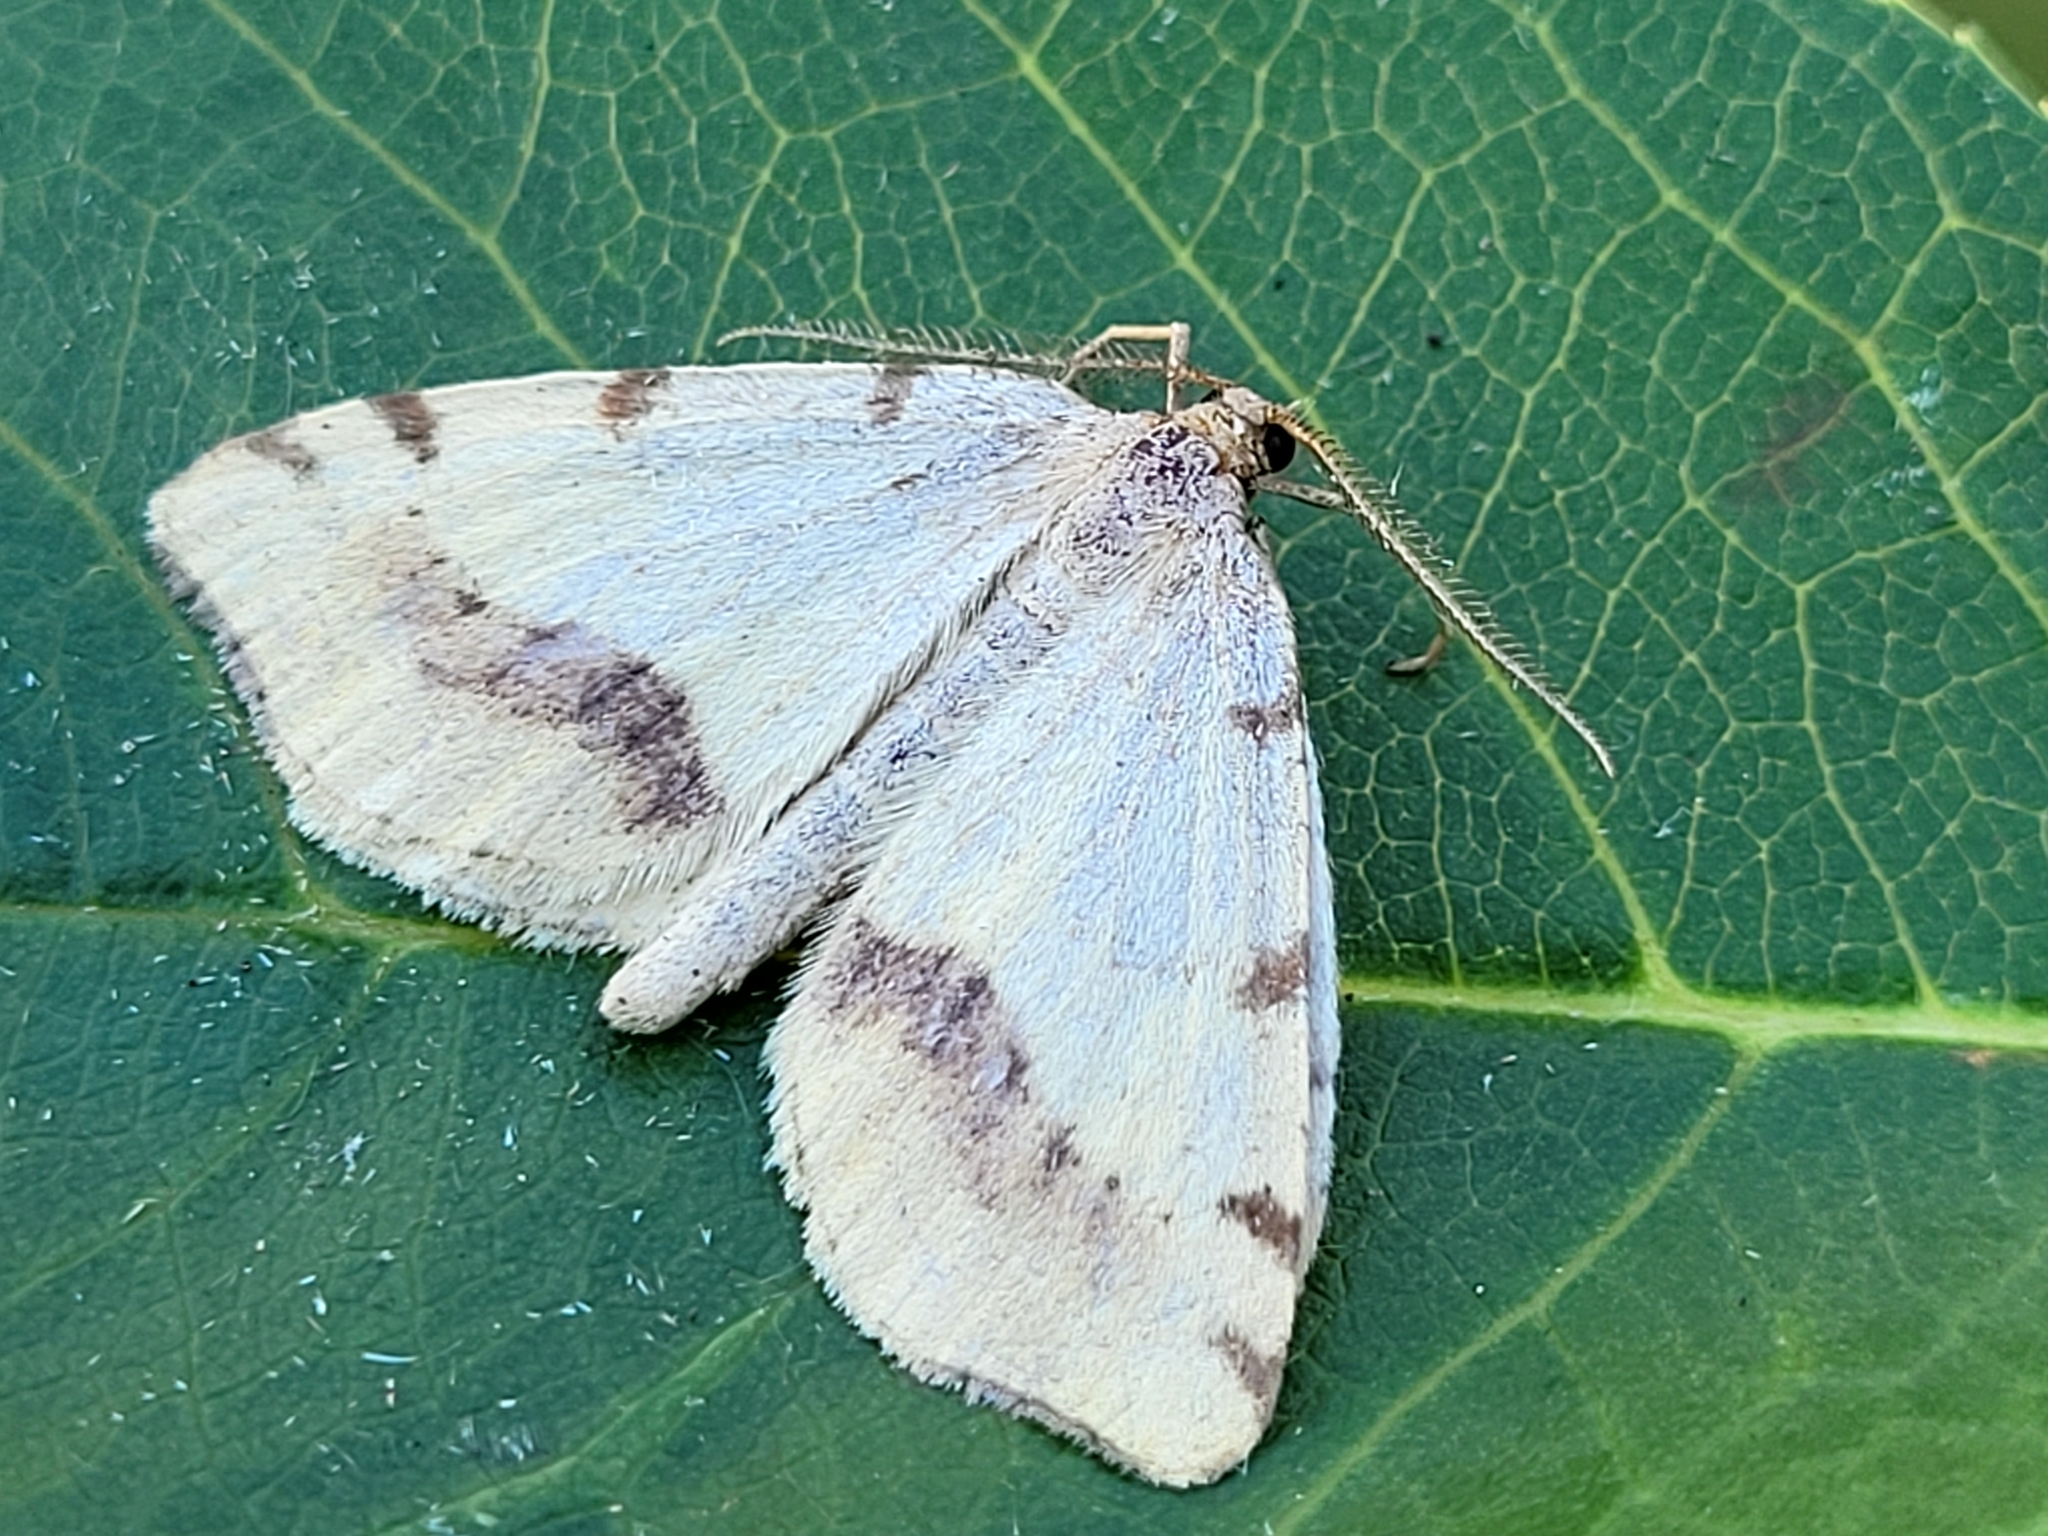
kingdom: Animalia
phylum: Arthropoda
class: Insecta
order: Lepidoptera
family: Geometridae
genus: Macaria
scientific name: Macaria occiduaria
